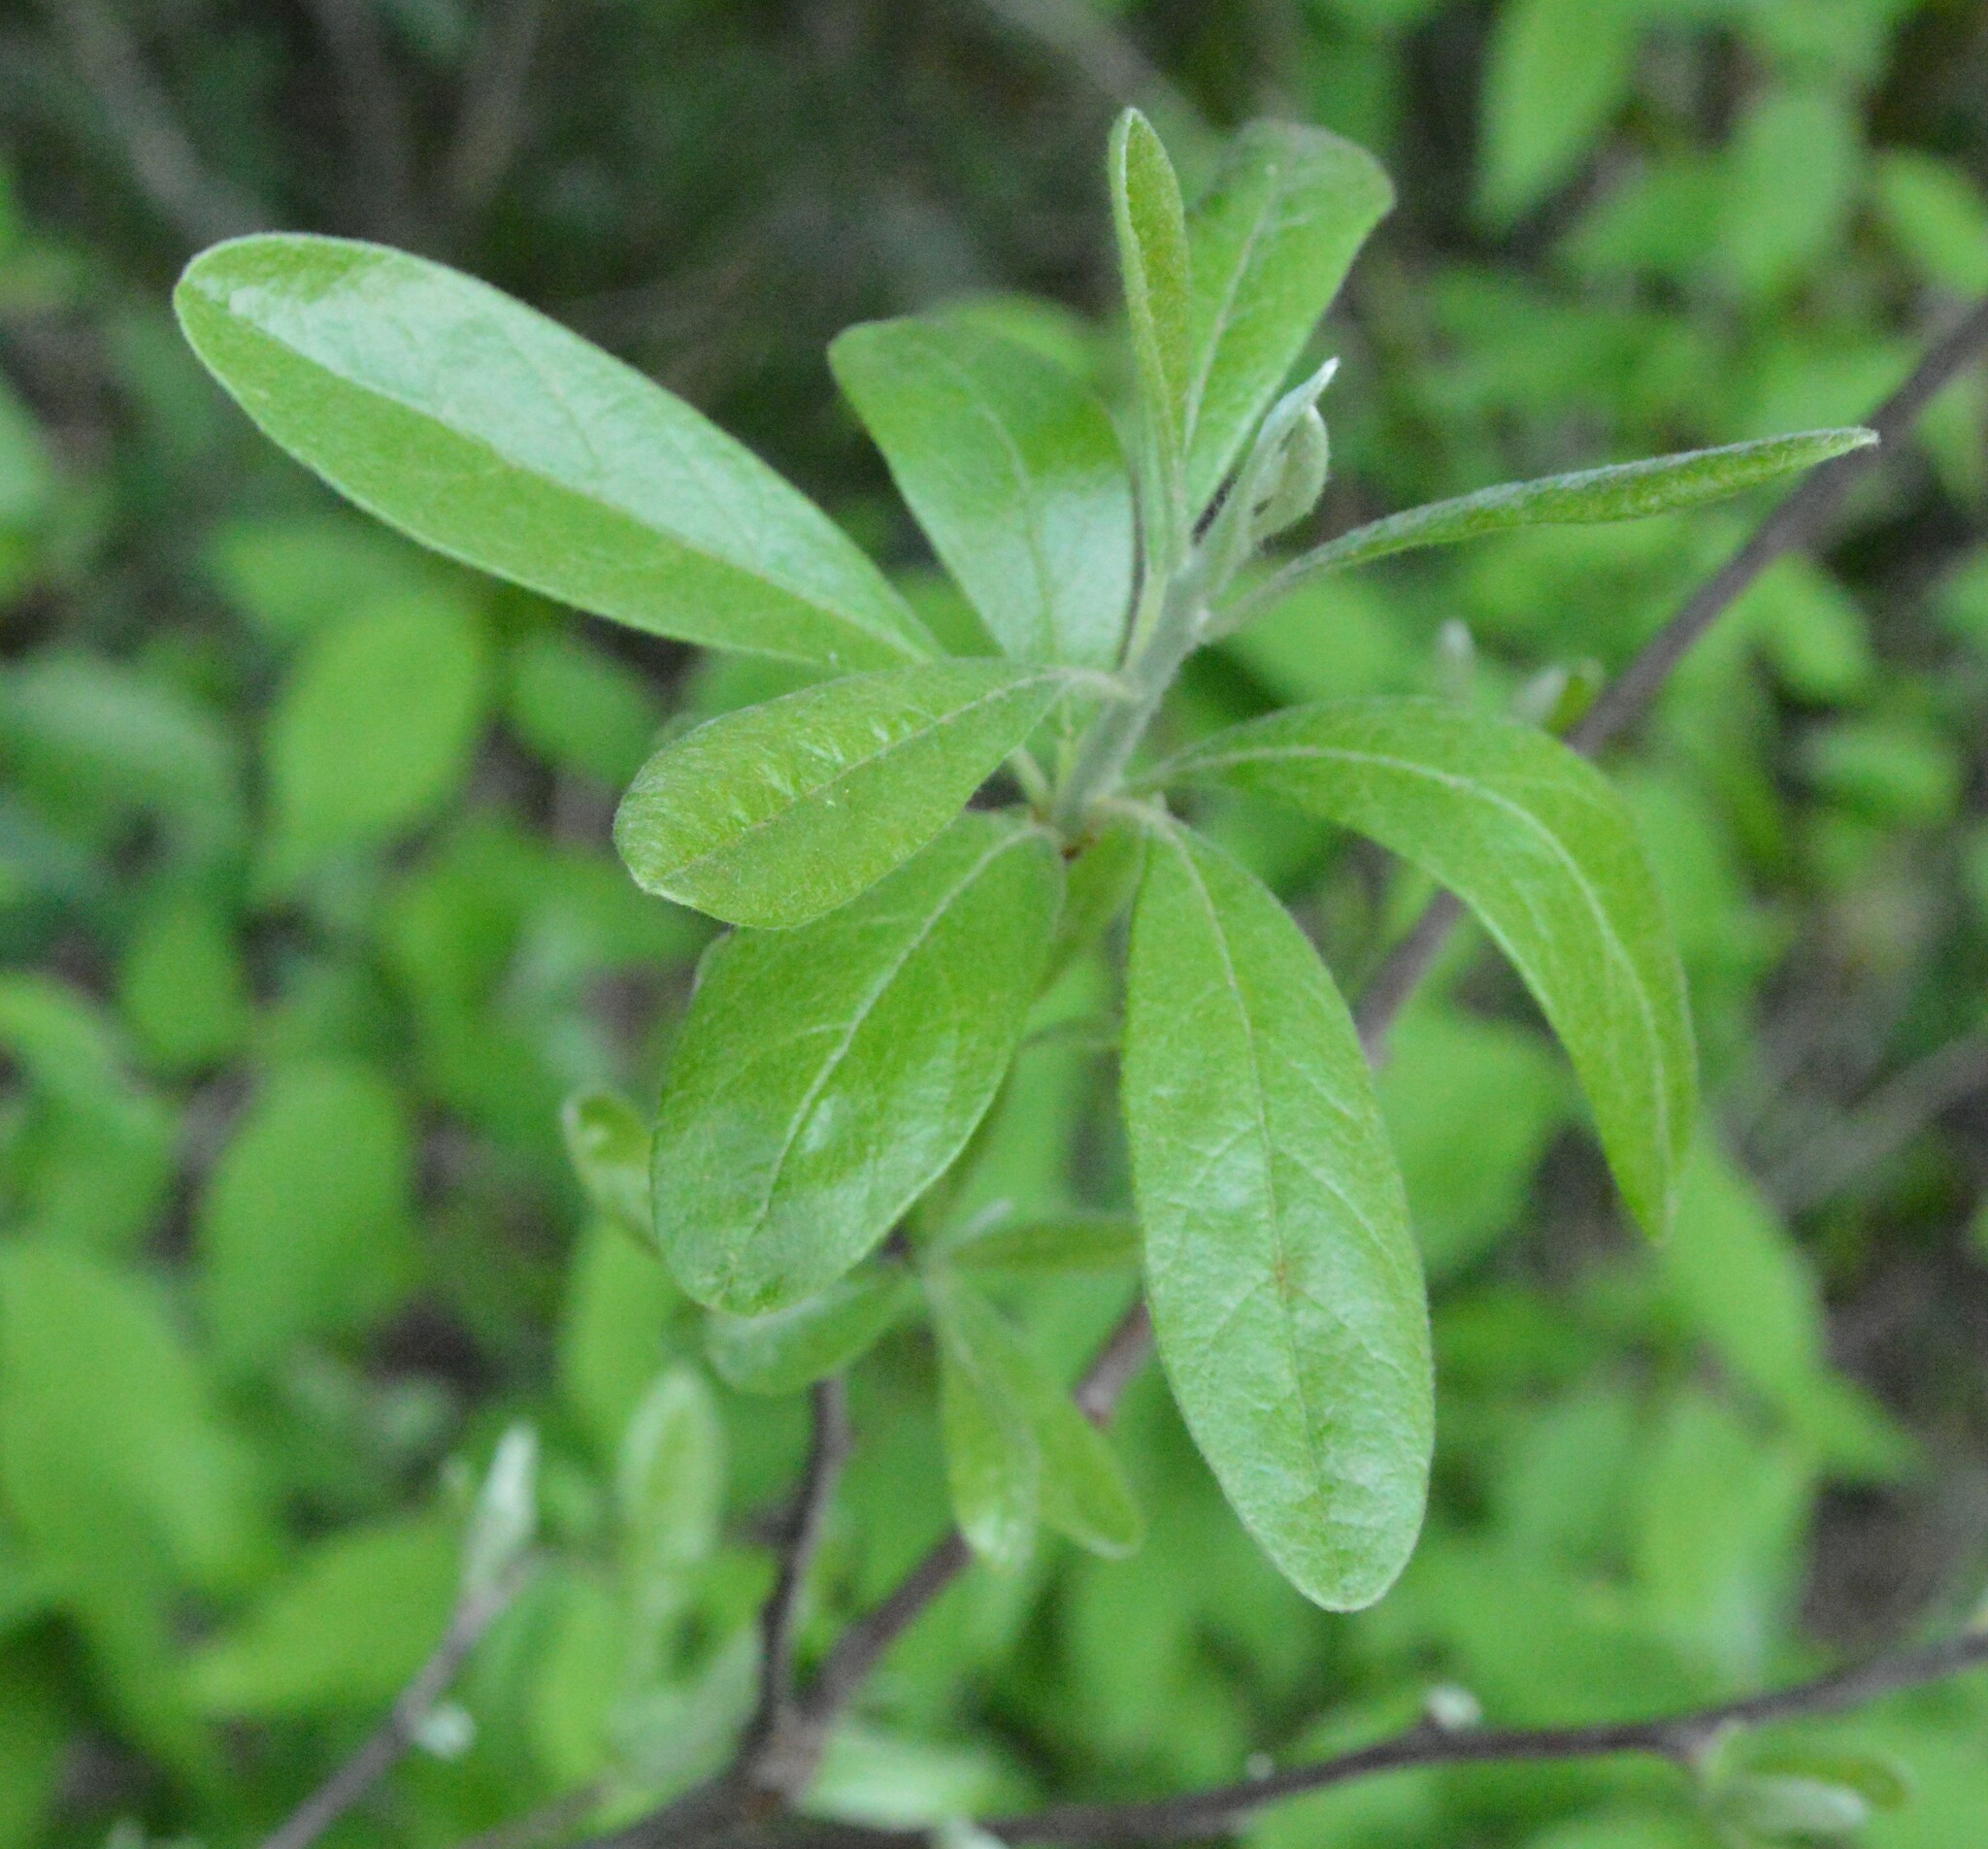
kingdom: Plantae
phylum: Tracheophyta
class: Magnoliopsida
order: Ericales
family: Sapotaceae
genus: Sideroxylon
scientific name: Sideroxylon lanuginosum
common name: Chittamwood
